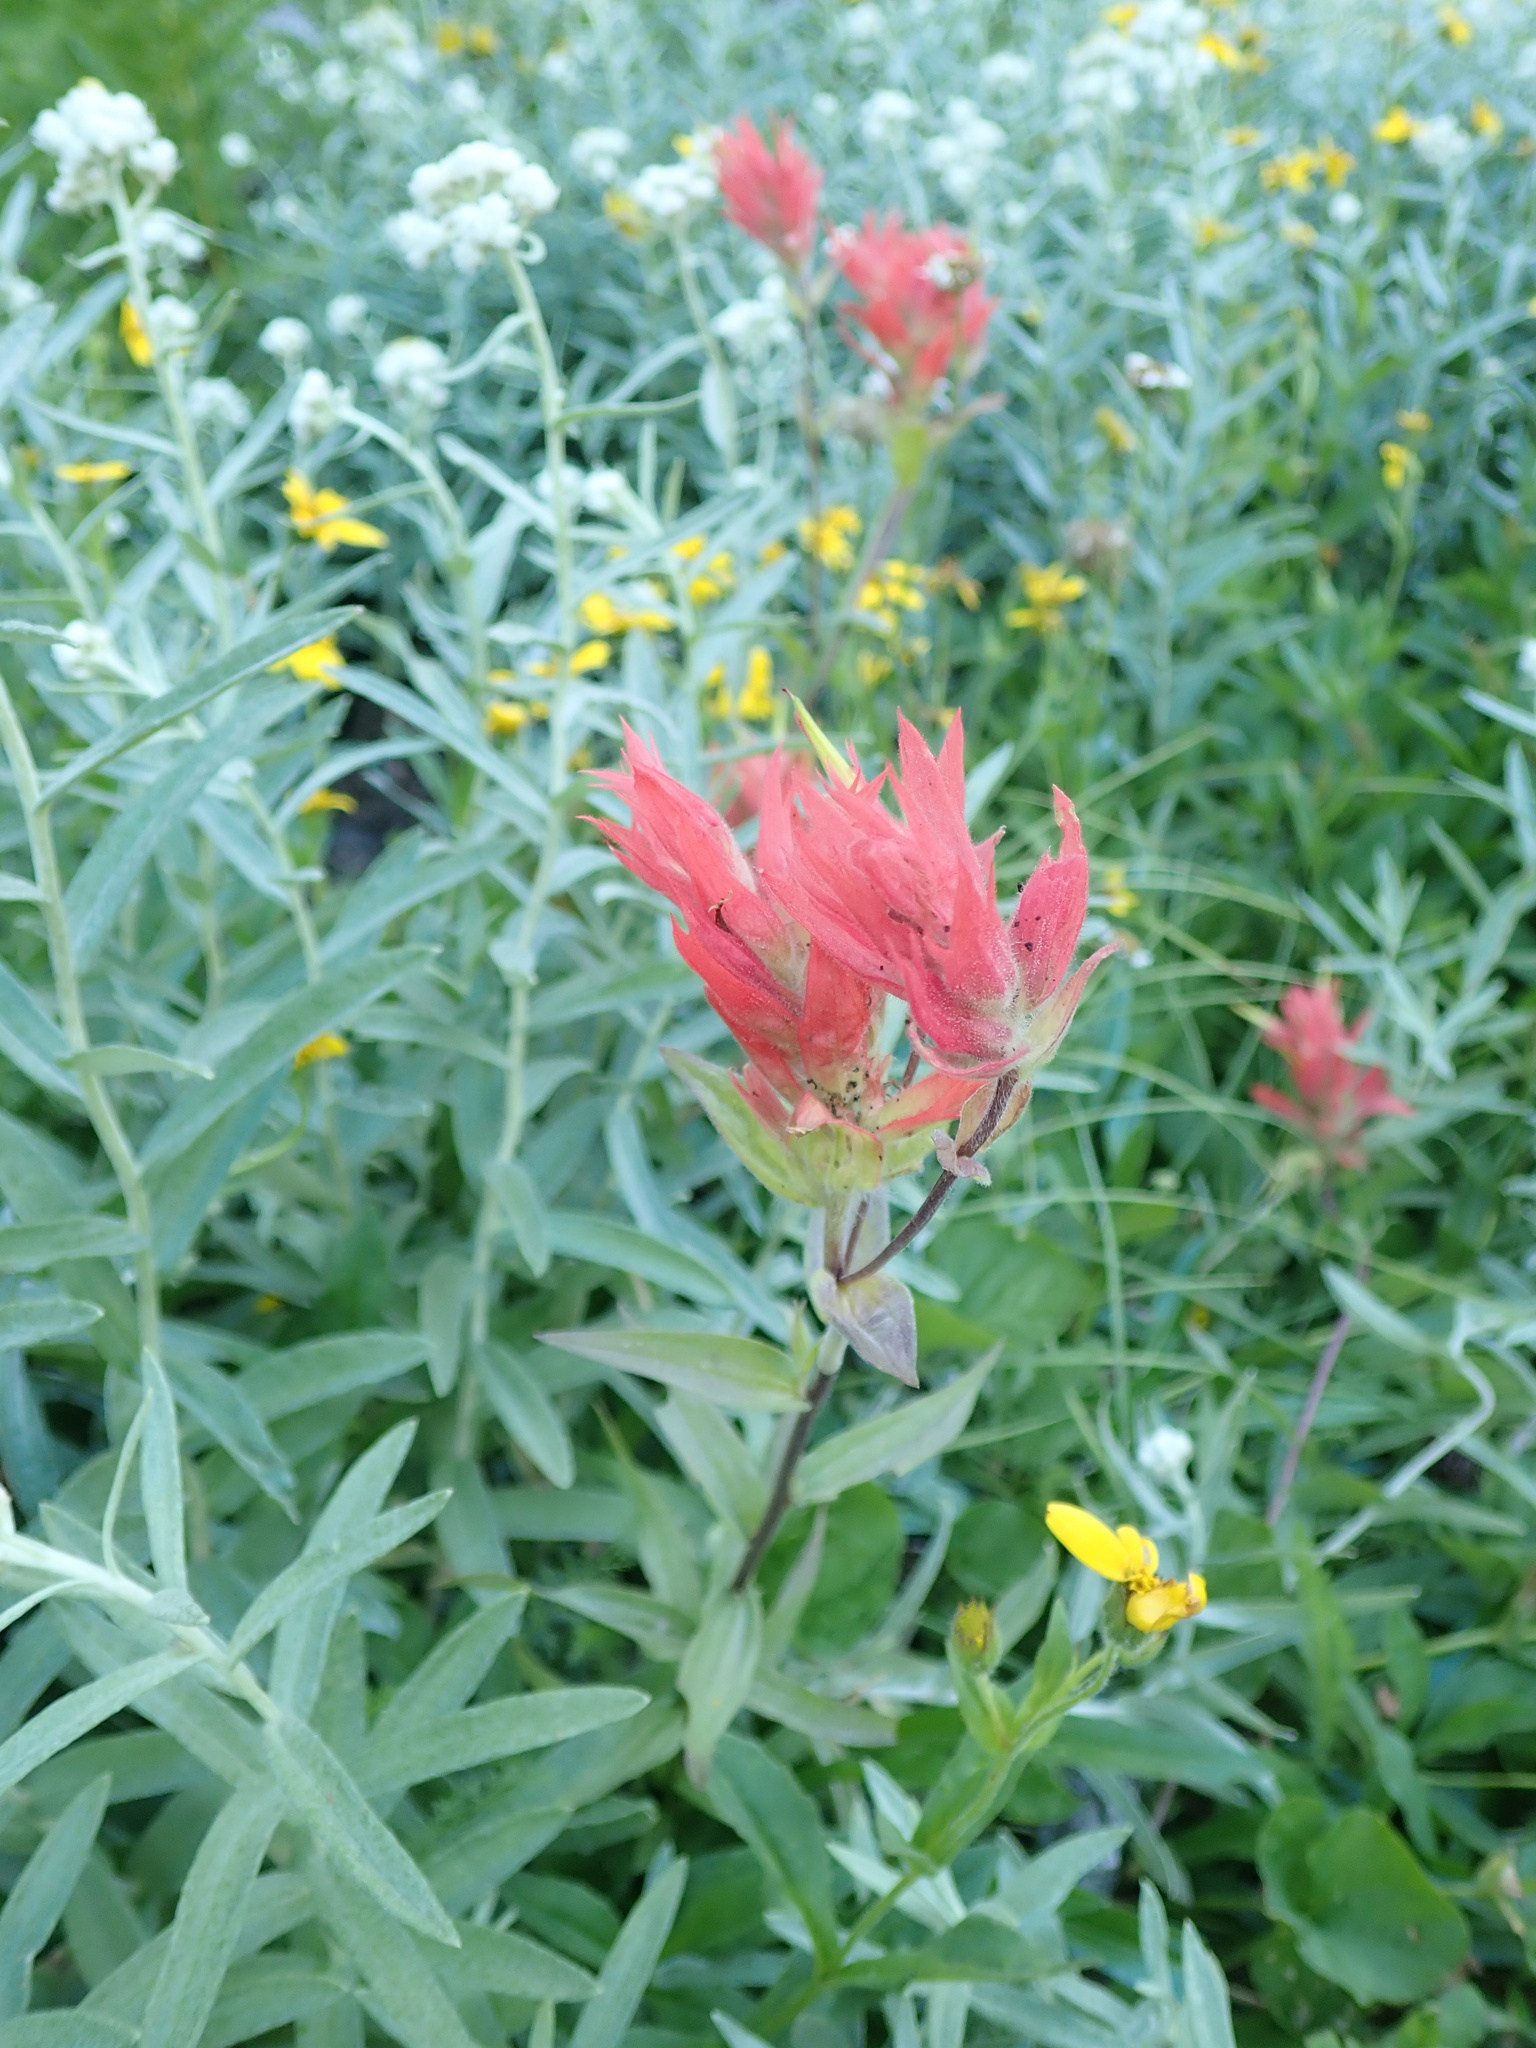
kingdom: Plantae
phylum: Tracheophyta
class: Magnoliopsida
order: Lamiales
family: Orobanchaceae
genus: Castilleja
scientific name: Castilleja miniata
